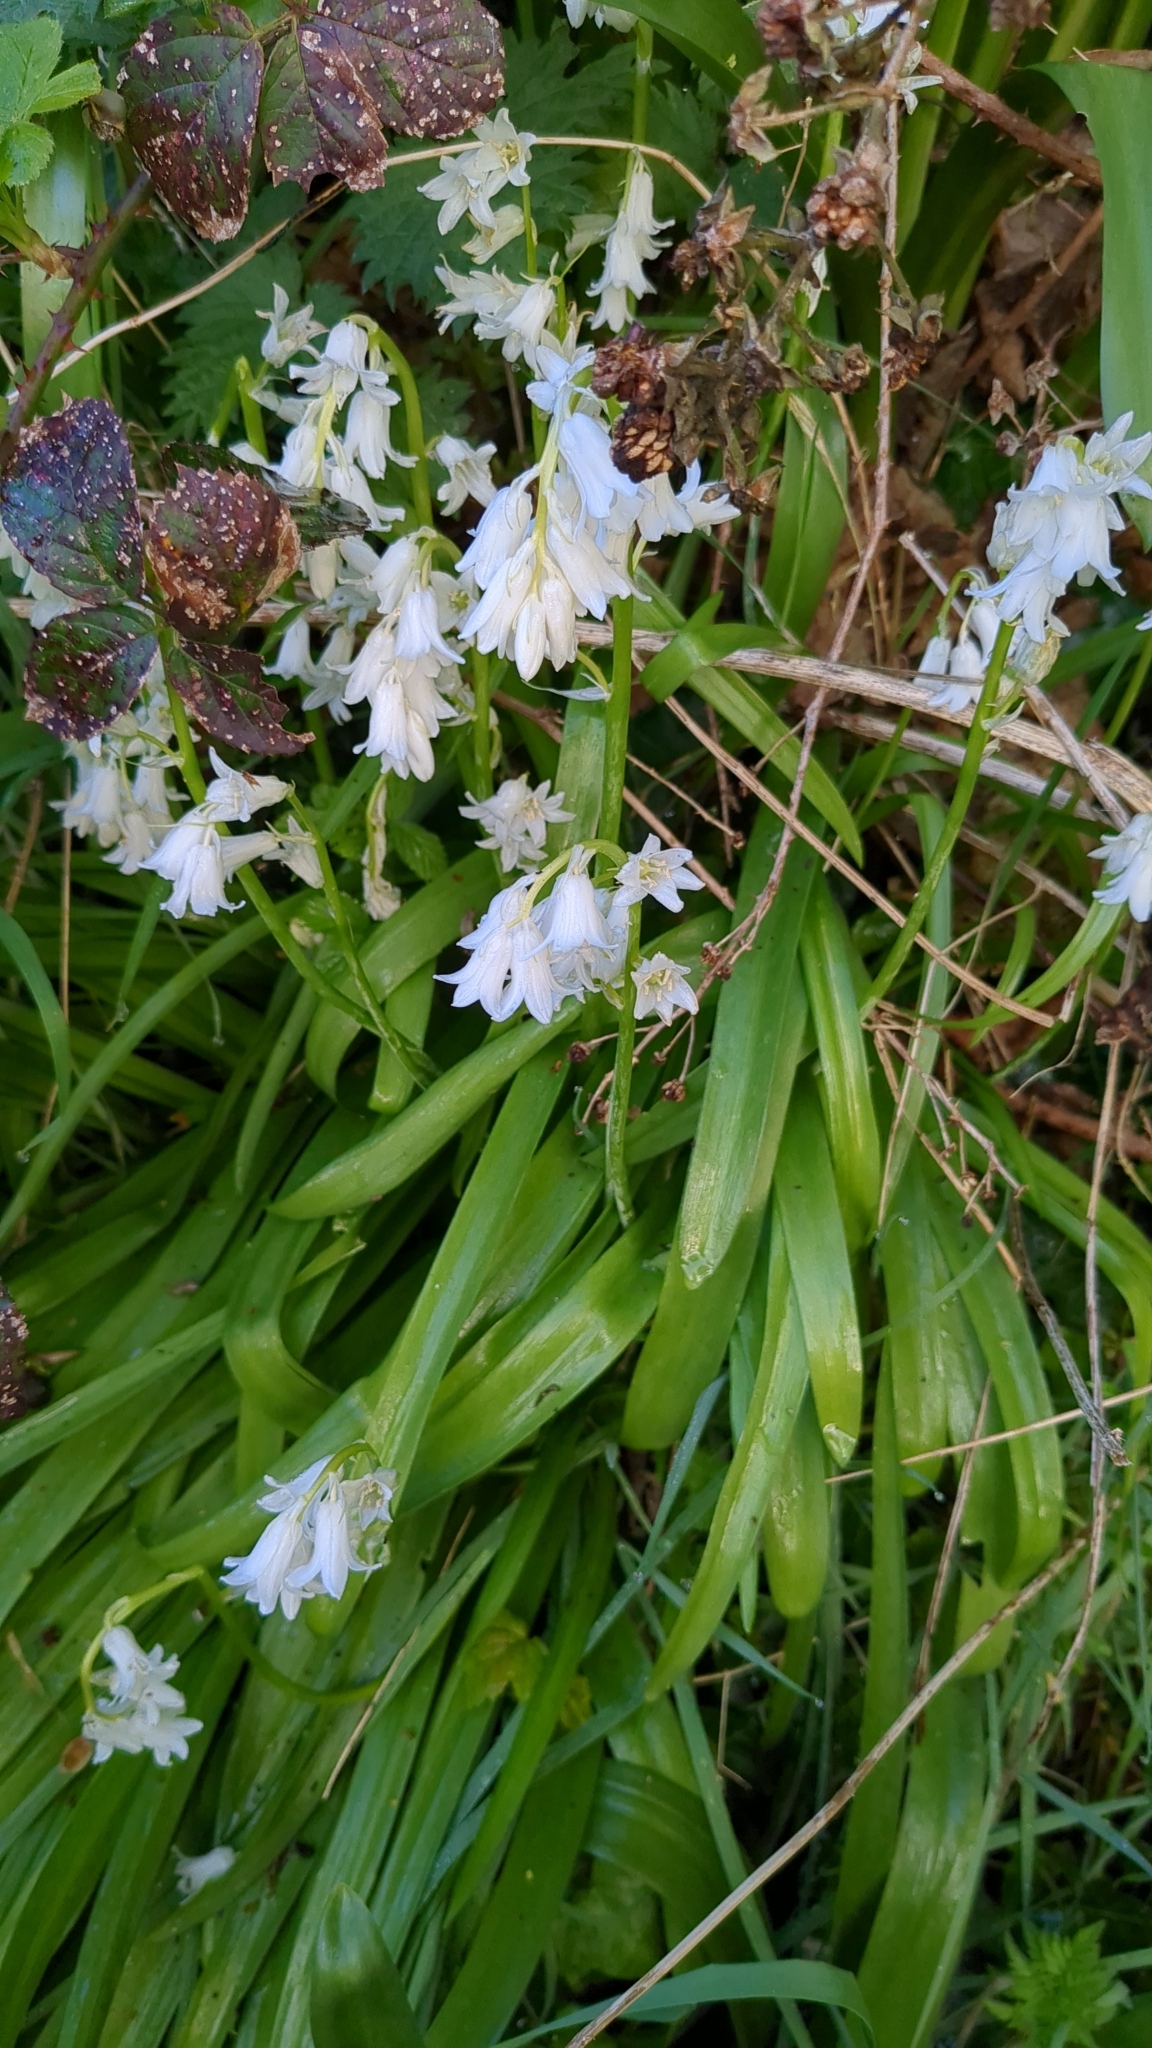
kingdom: Plantae
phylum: Tracheophyta
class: Liliopsida
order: Asparagales
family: Asparagaceae
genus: Hyacinthoides
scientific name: Hyacinthoides massartiana
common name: Hyacinthoides
